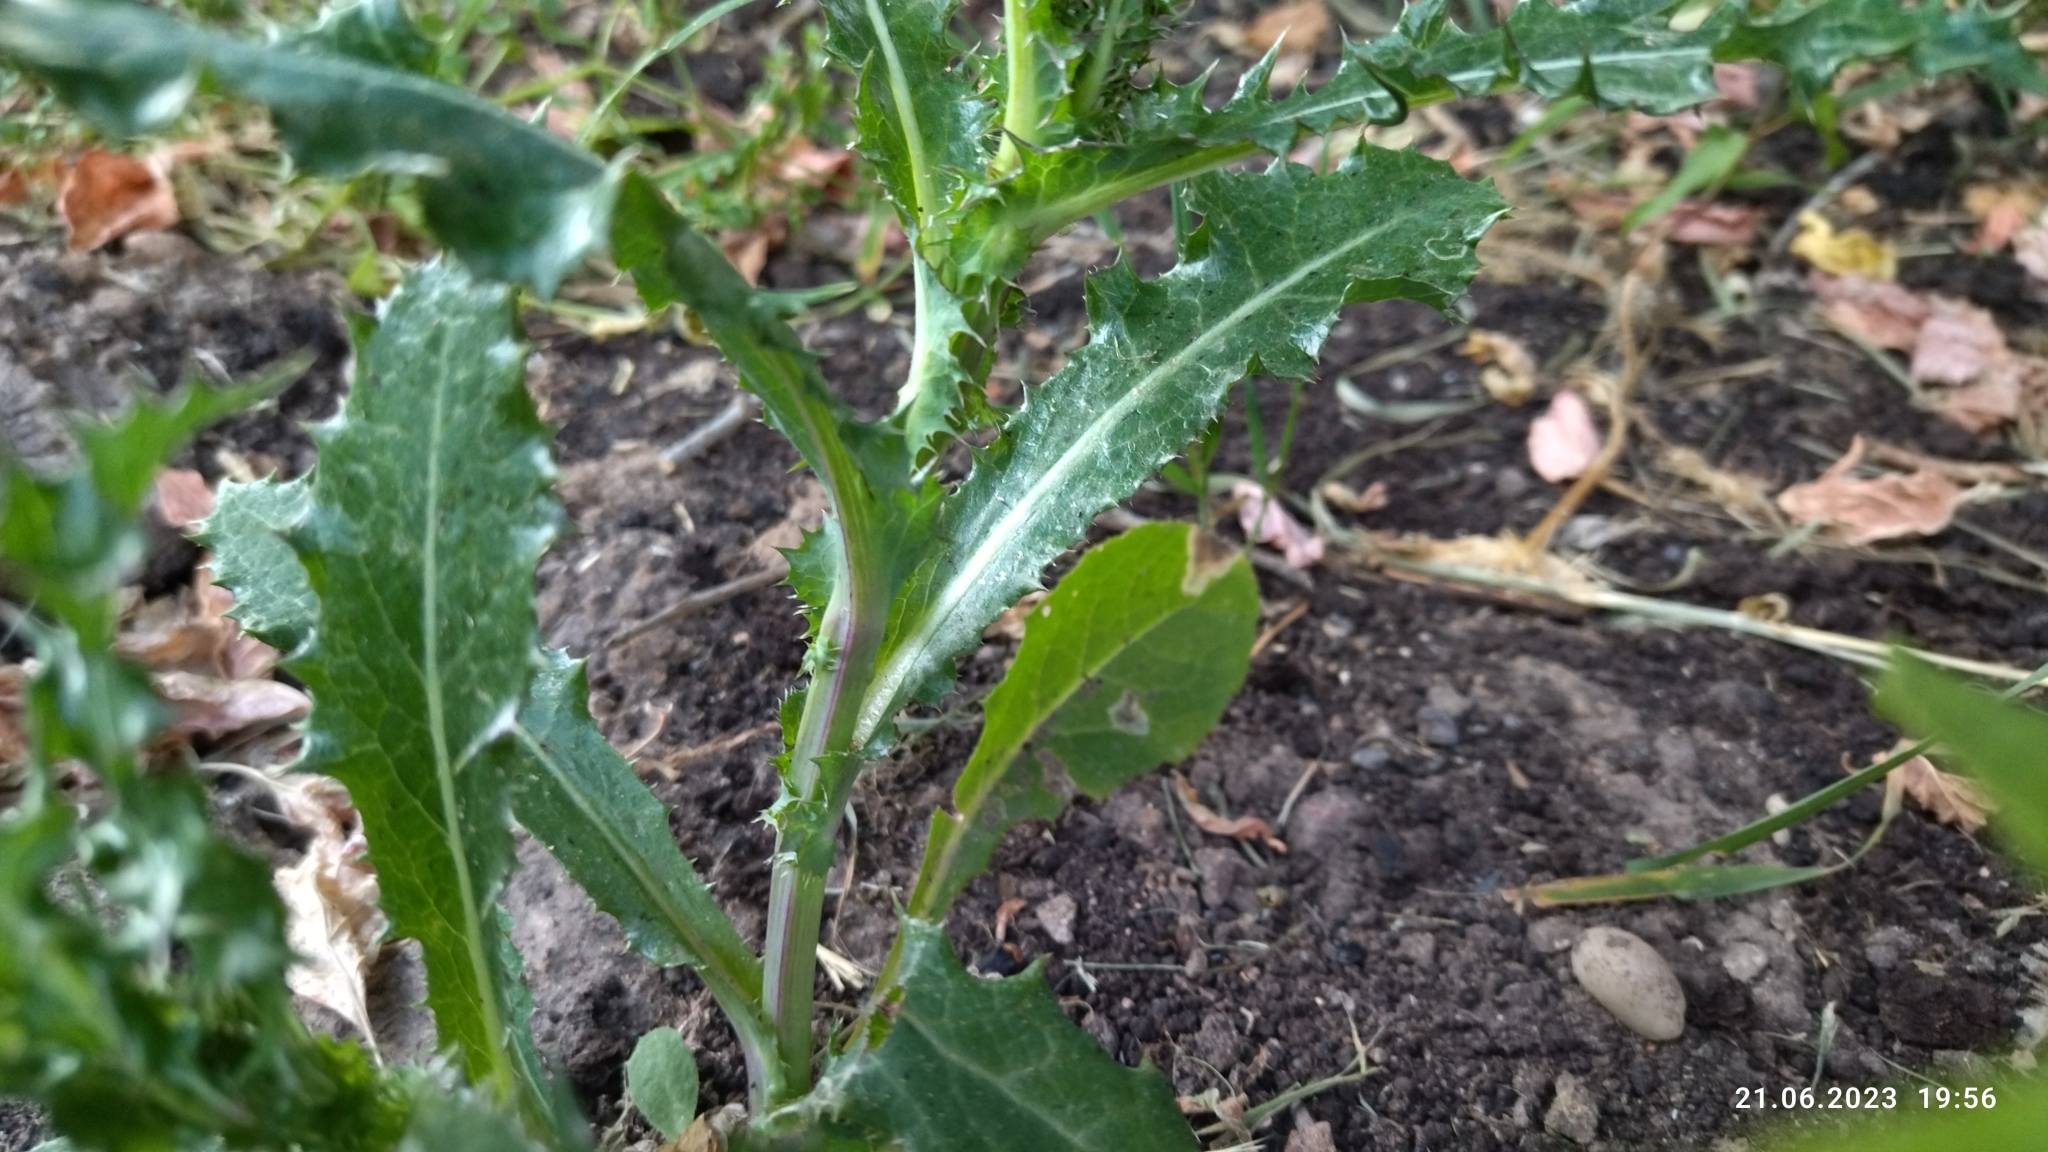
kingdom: Plantae
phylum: Tracheophyta
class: Magnoliopsida
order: Asterales
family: Asteraceae
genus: Sonchus
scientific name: Sonchus asper
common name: Prickly sow-thistle
